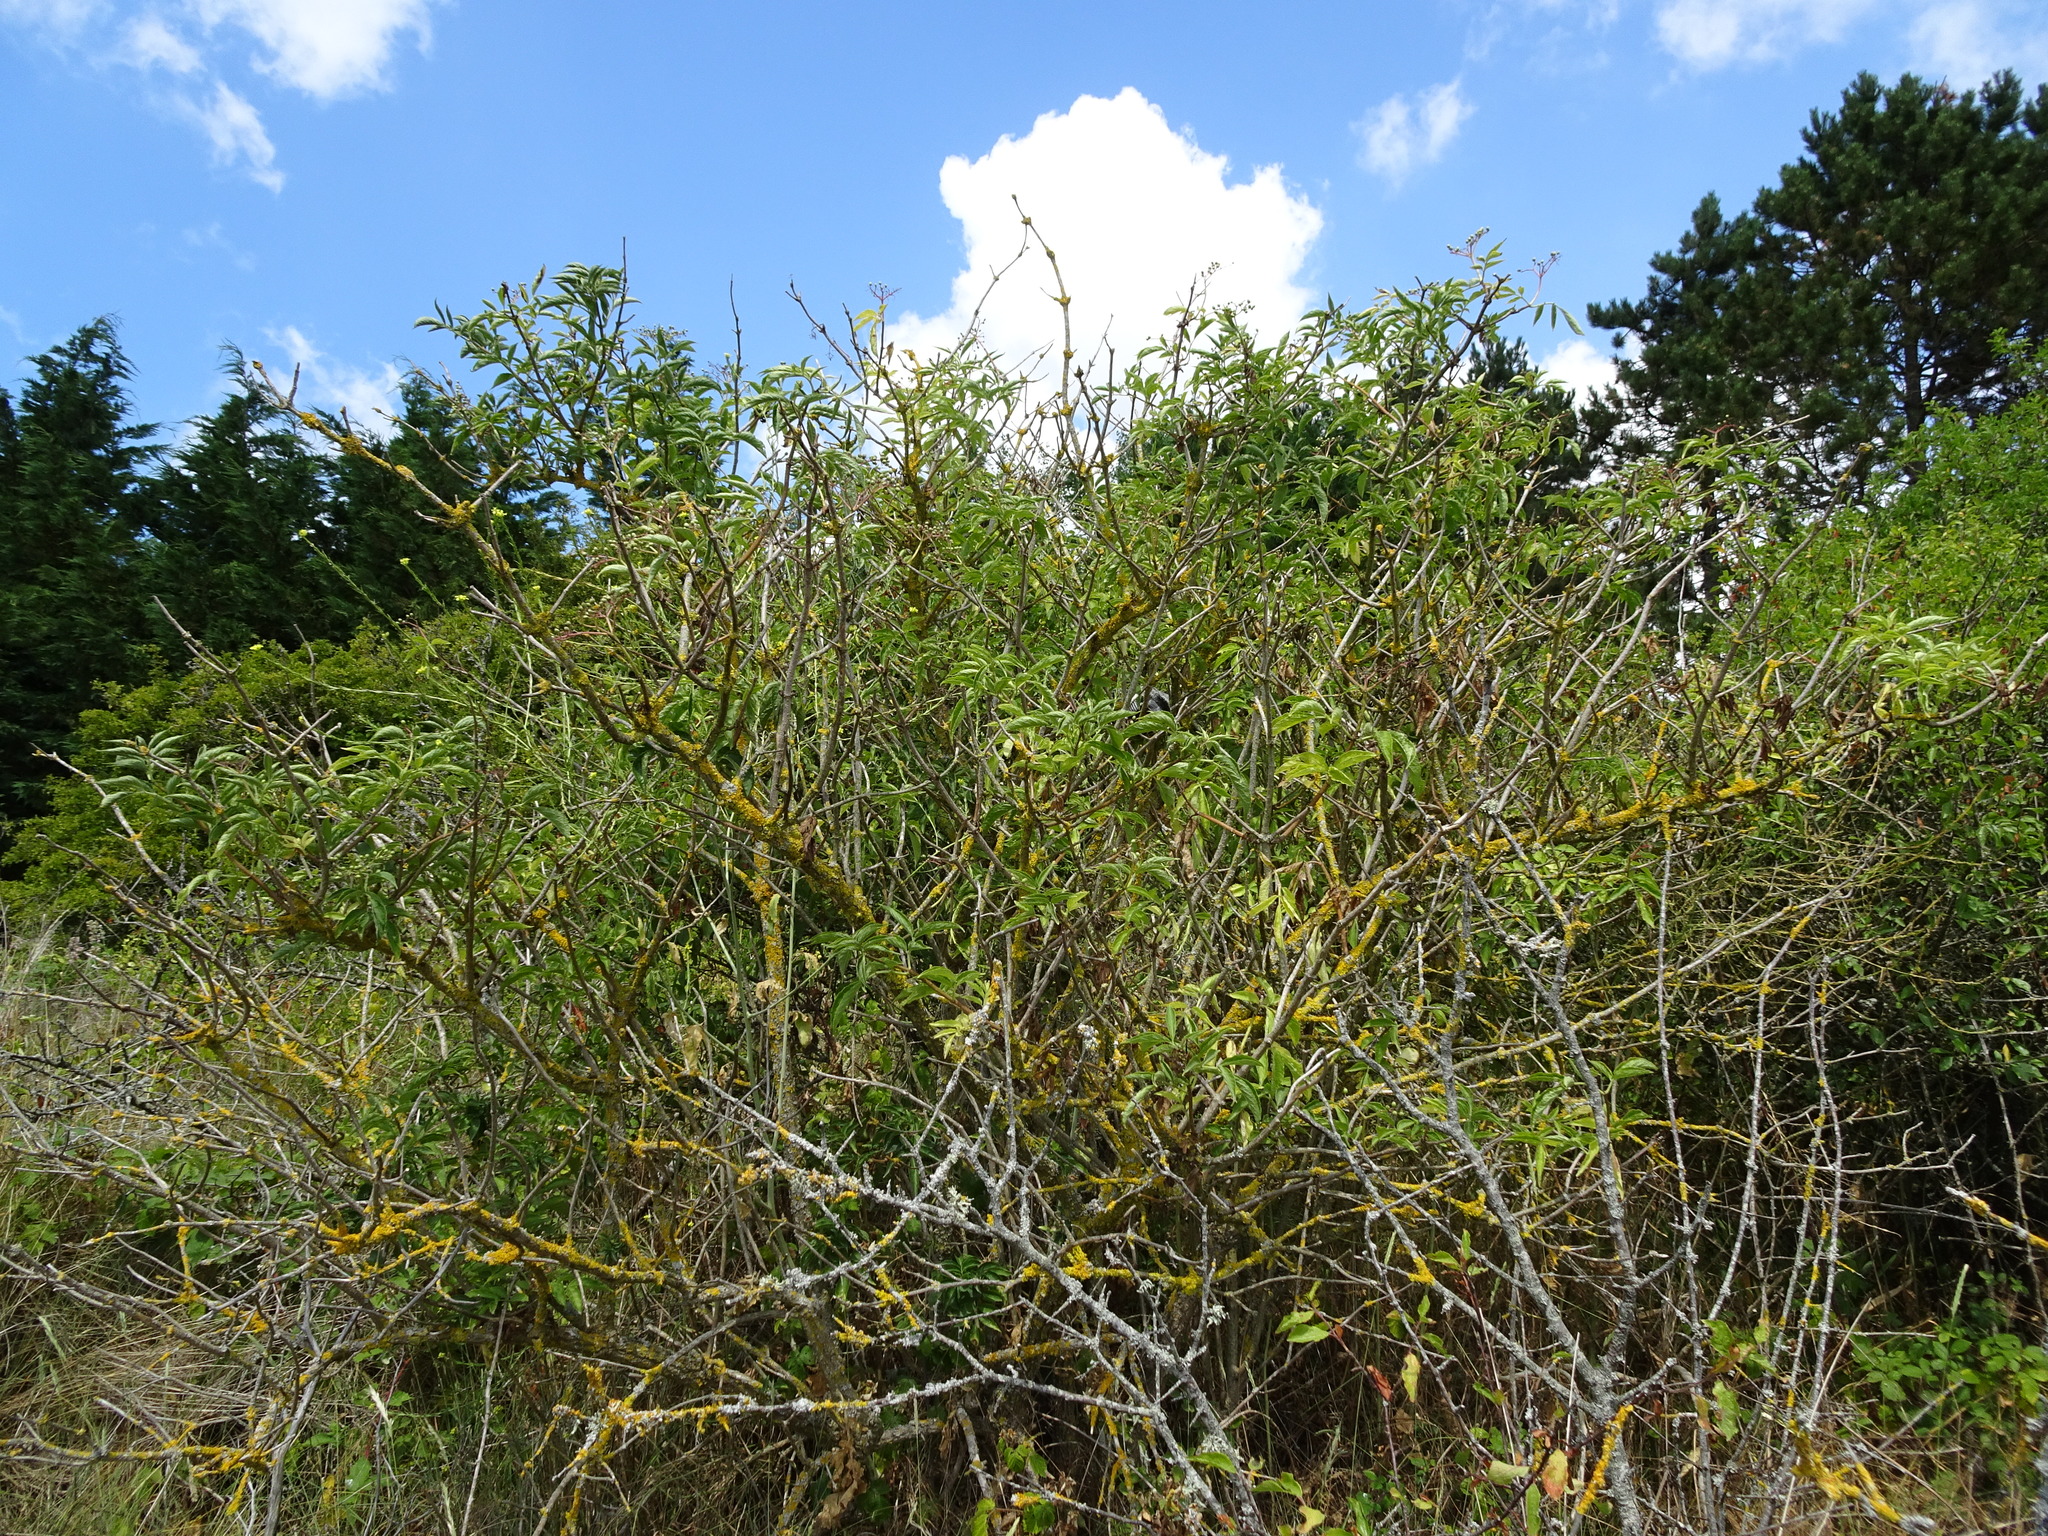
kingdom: Plantae
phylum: Tracheophyta
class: Magnoliopsida
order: Dipsacales
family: Viburnaceae
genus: Sambucus
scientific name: Sambucus nigra
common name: Elder
